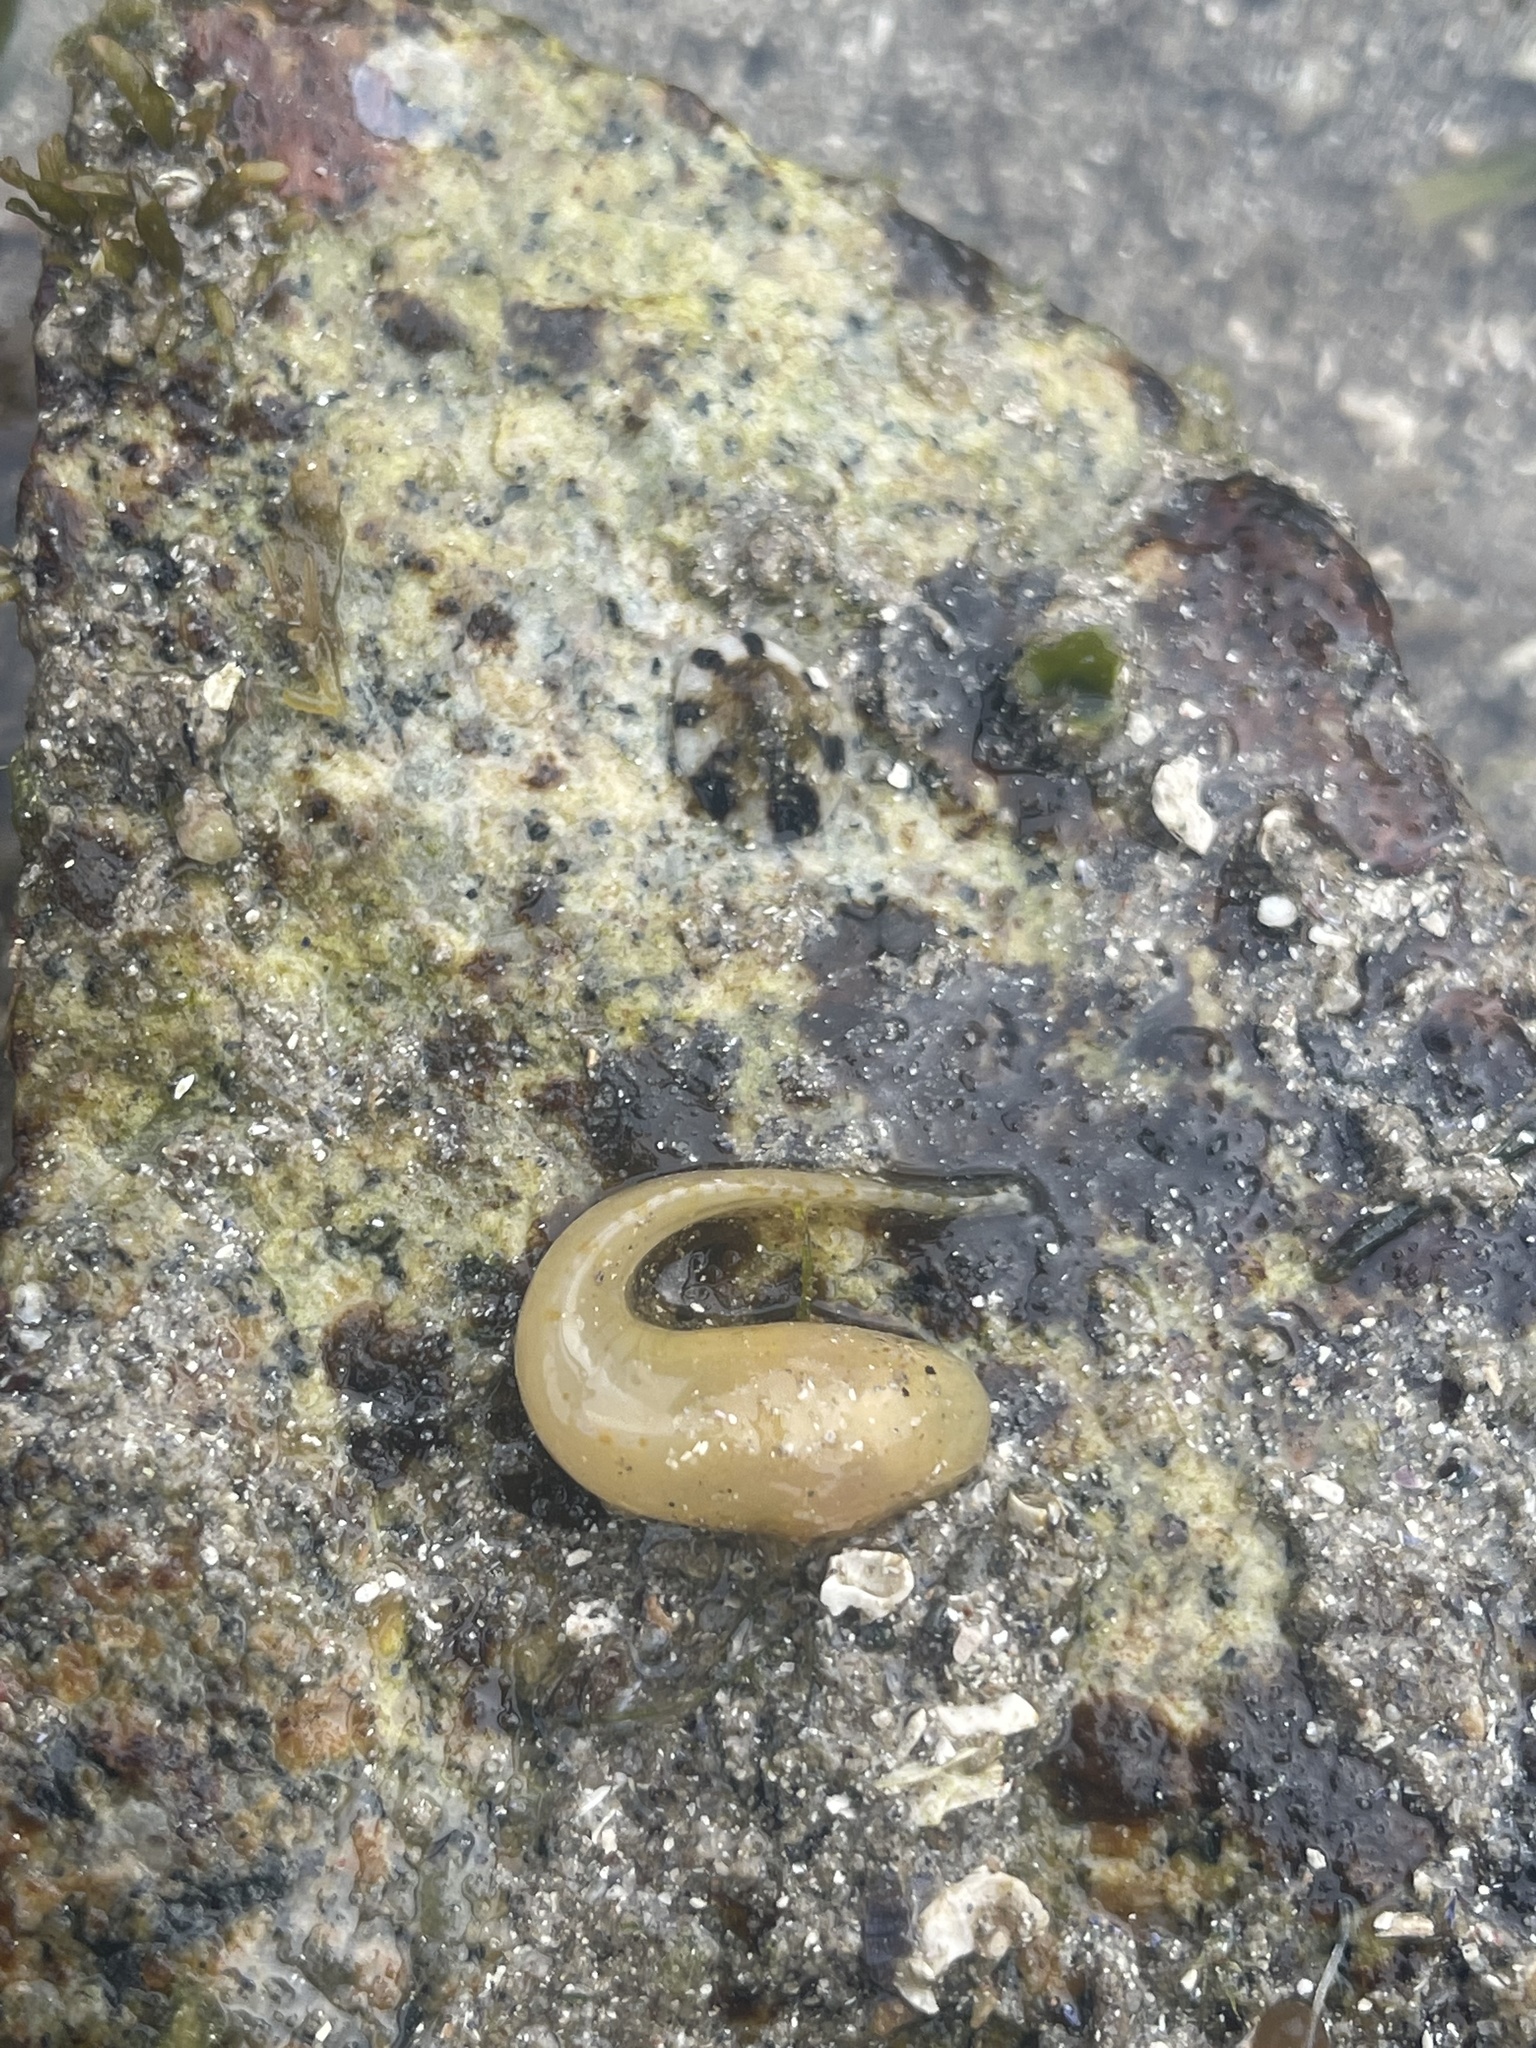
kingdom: Animalia
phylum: Chordata
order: Scorpaeniformes
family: Liparidae
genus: Liparis
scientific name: Liparis florae
